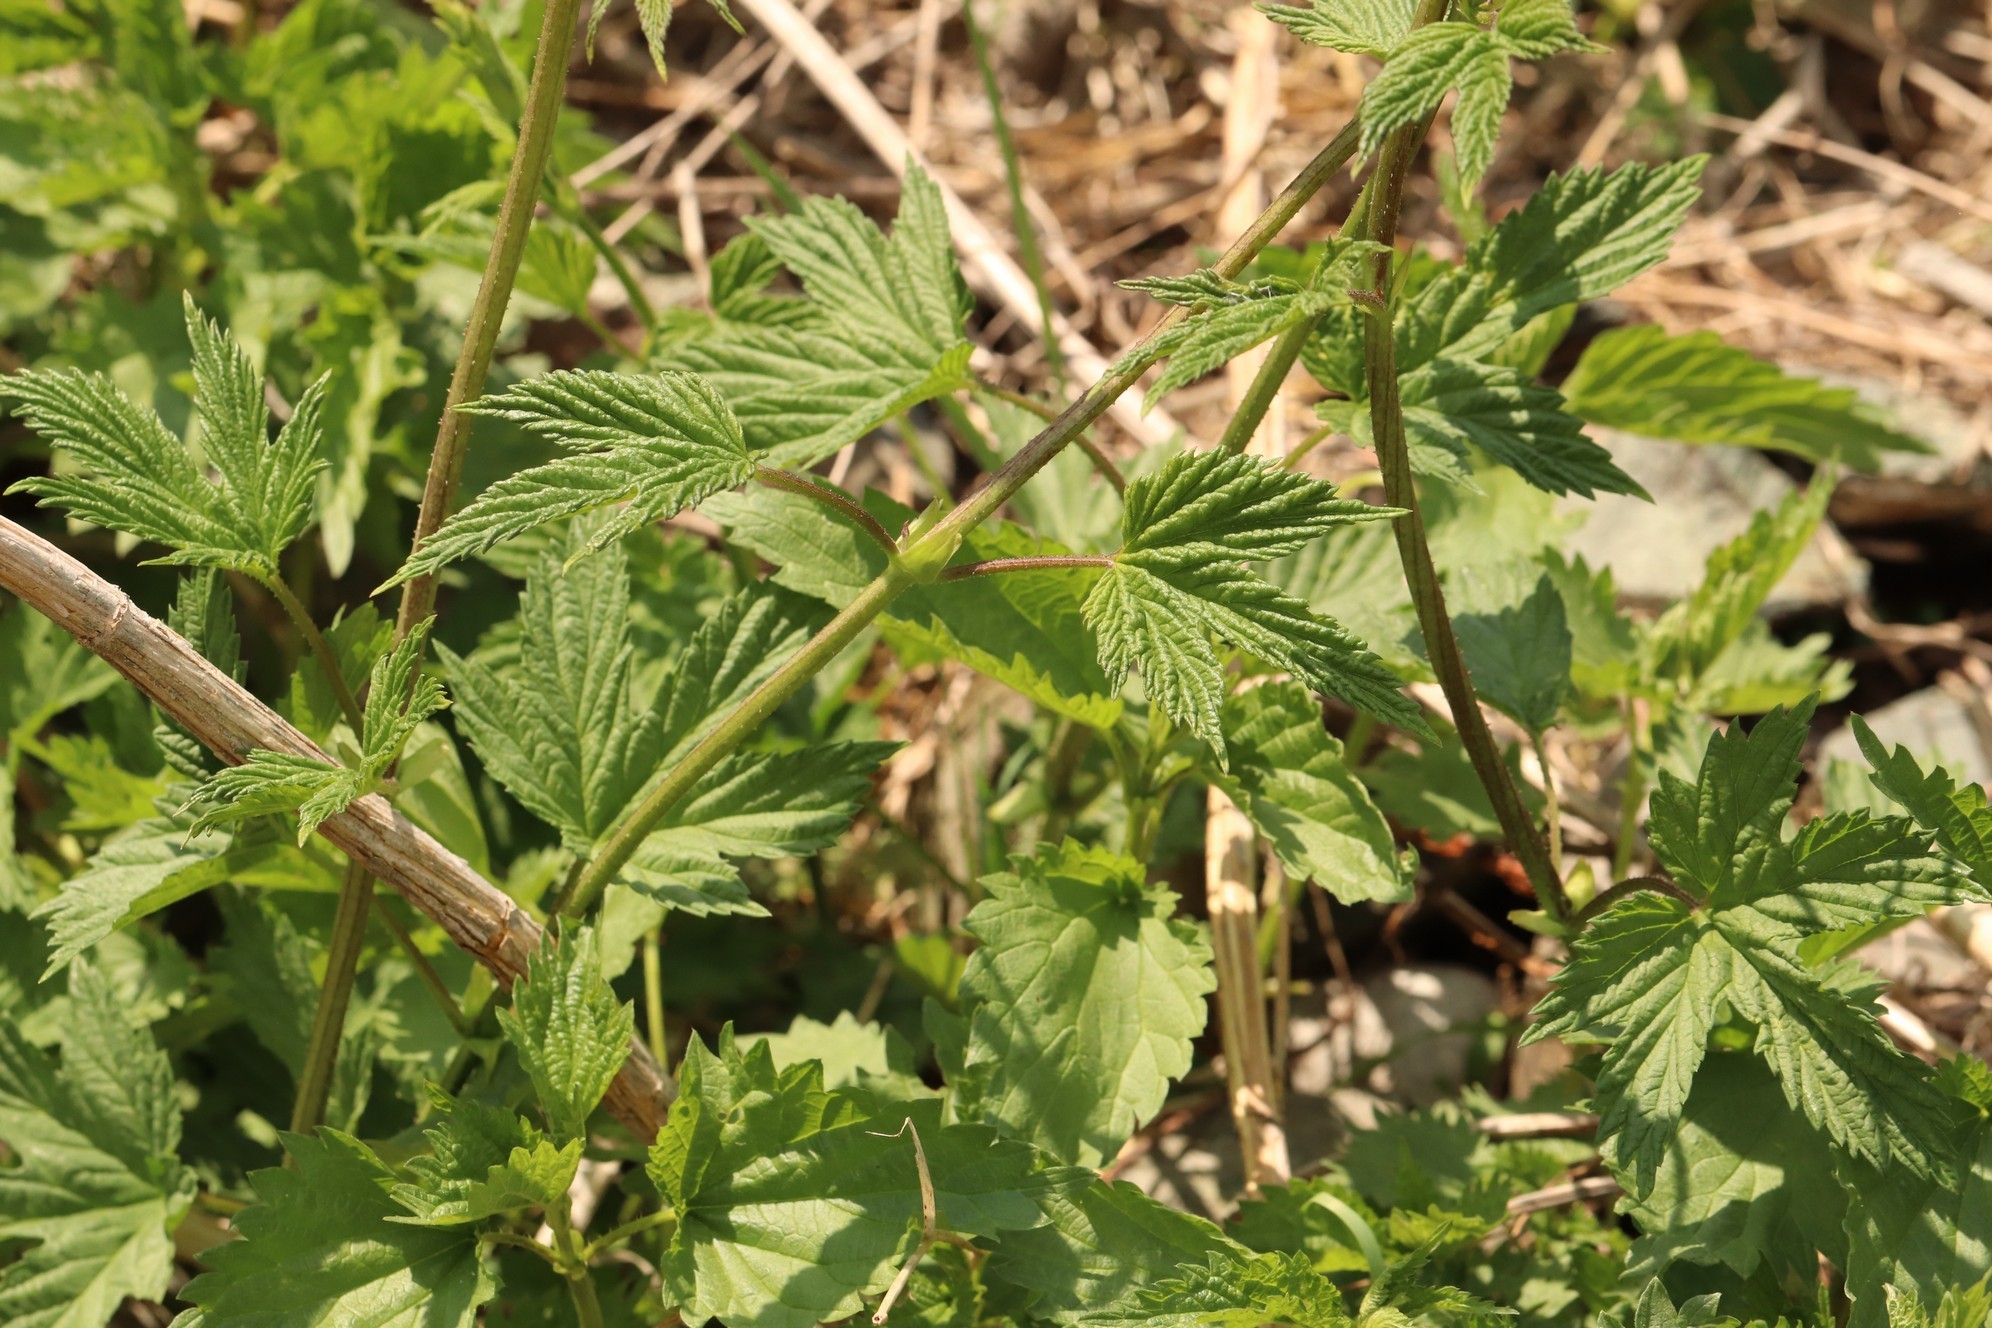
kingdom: Plantae
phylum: Tracheophyta
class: Magnoliopsida
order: Rosales
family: Cannabaceae
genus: Humulus
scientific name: Humulus lupulus
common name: Hop
